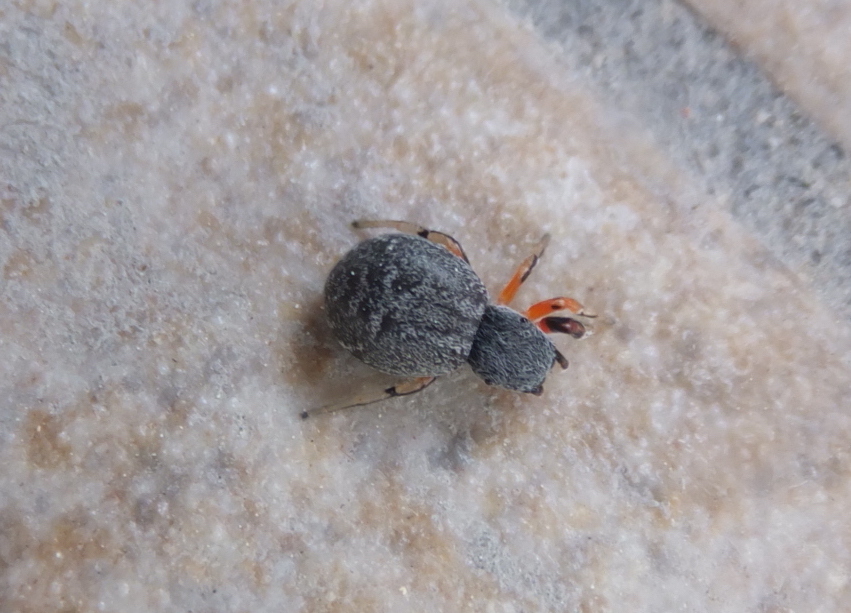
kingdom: Animalia
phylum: Arthropoda
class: Arachnida
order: Araneae
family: Salticidae
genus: Ballus
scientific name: Ballus rufipes
